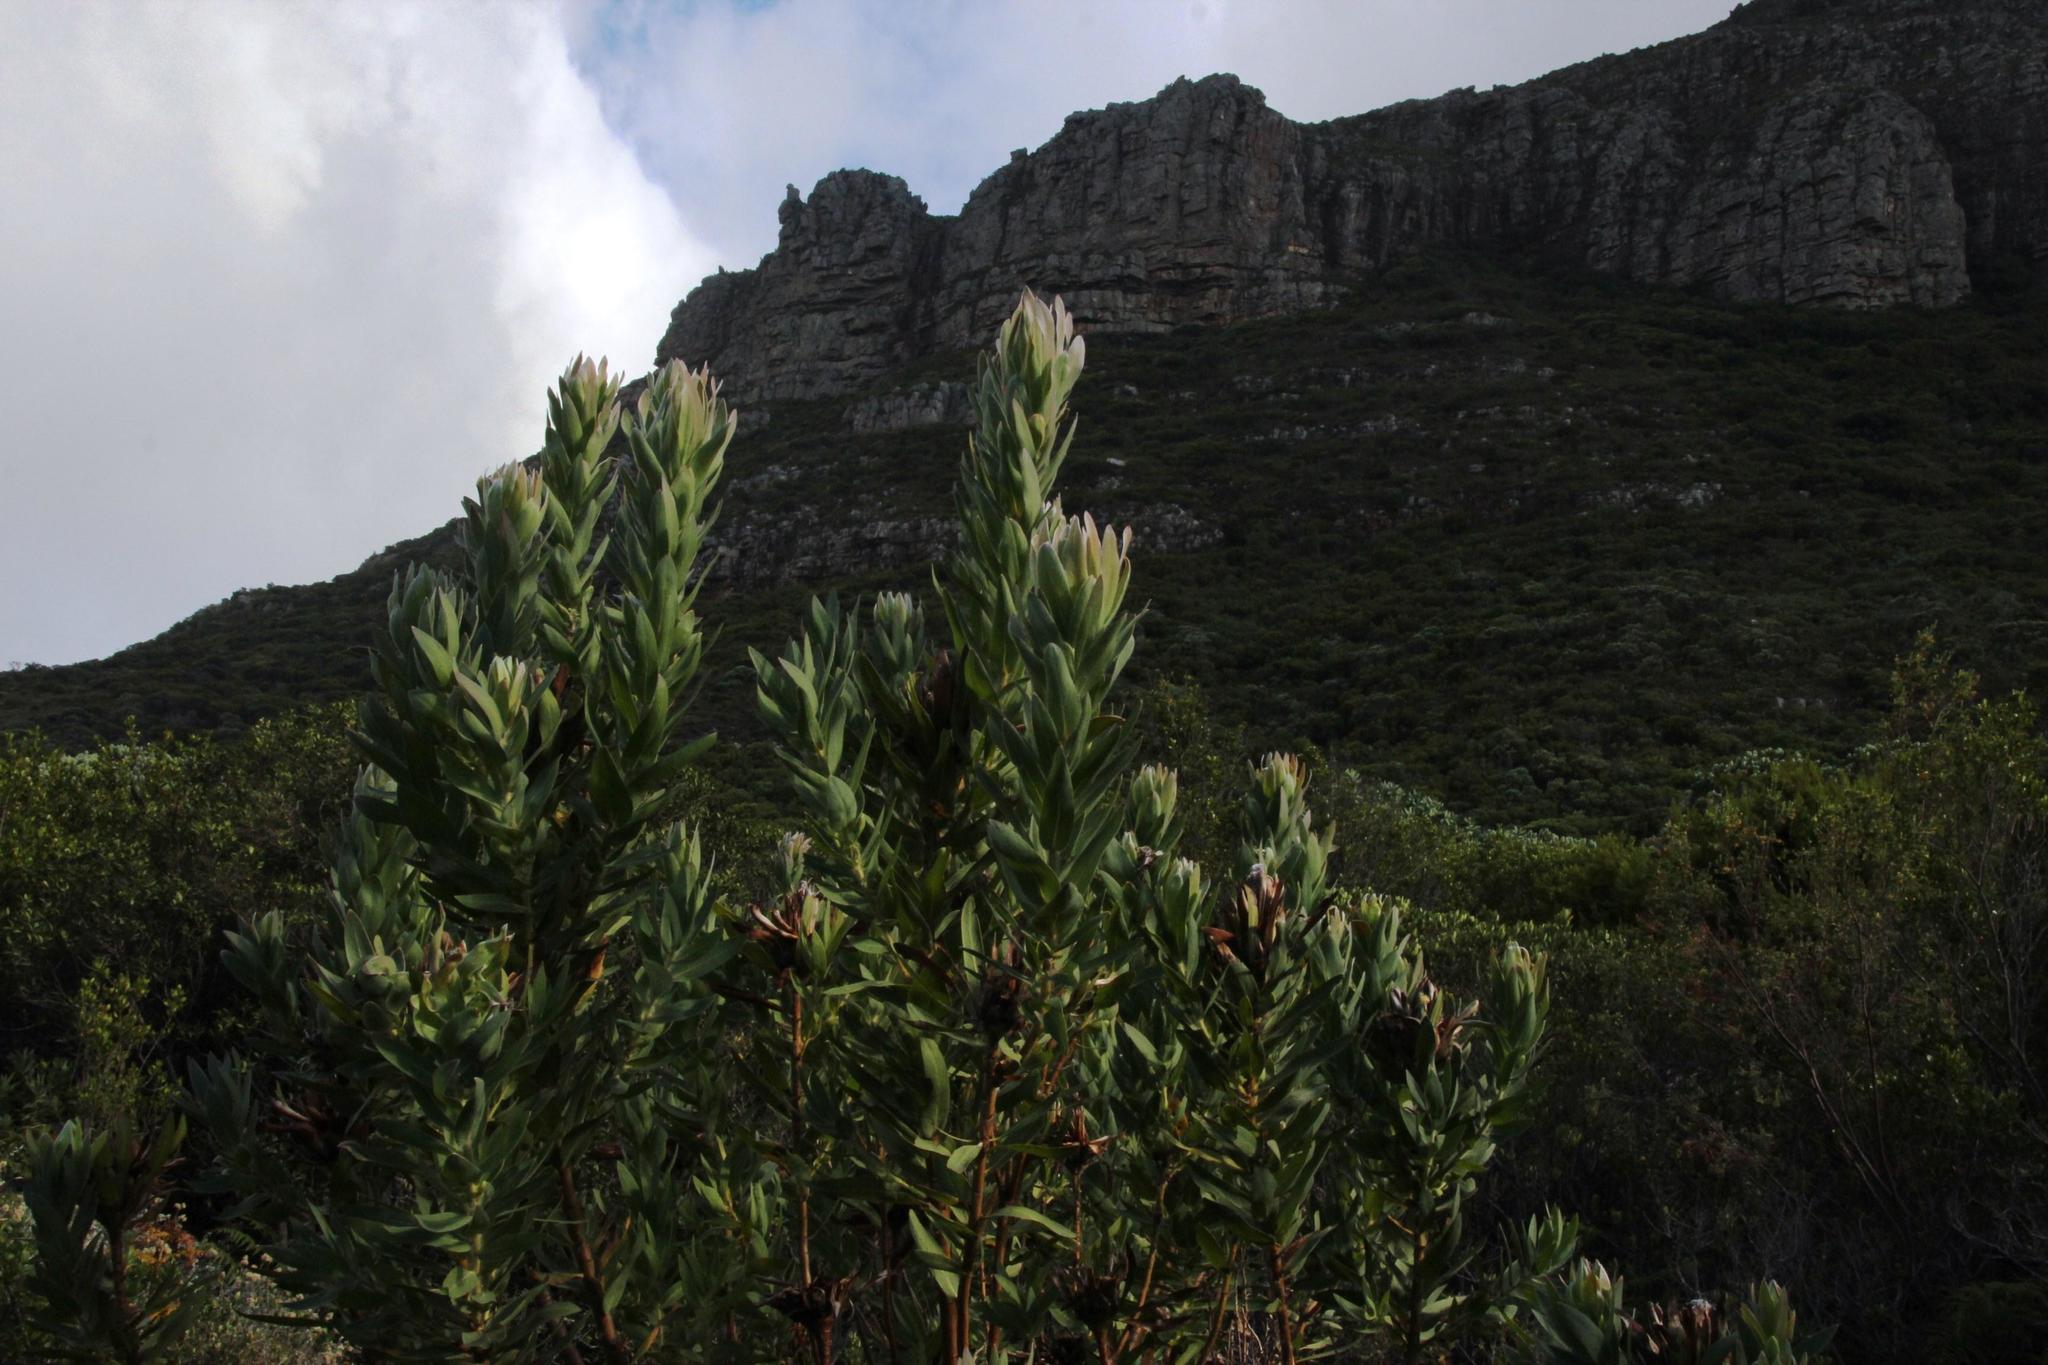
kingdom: Plantae
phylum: Tracheophyta
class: Magnoliopsida
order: Proteales
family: Proteaceae
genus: Protea
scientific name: Protea coronata
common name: Green sugarbush
